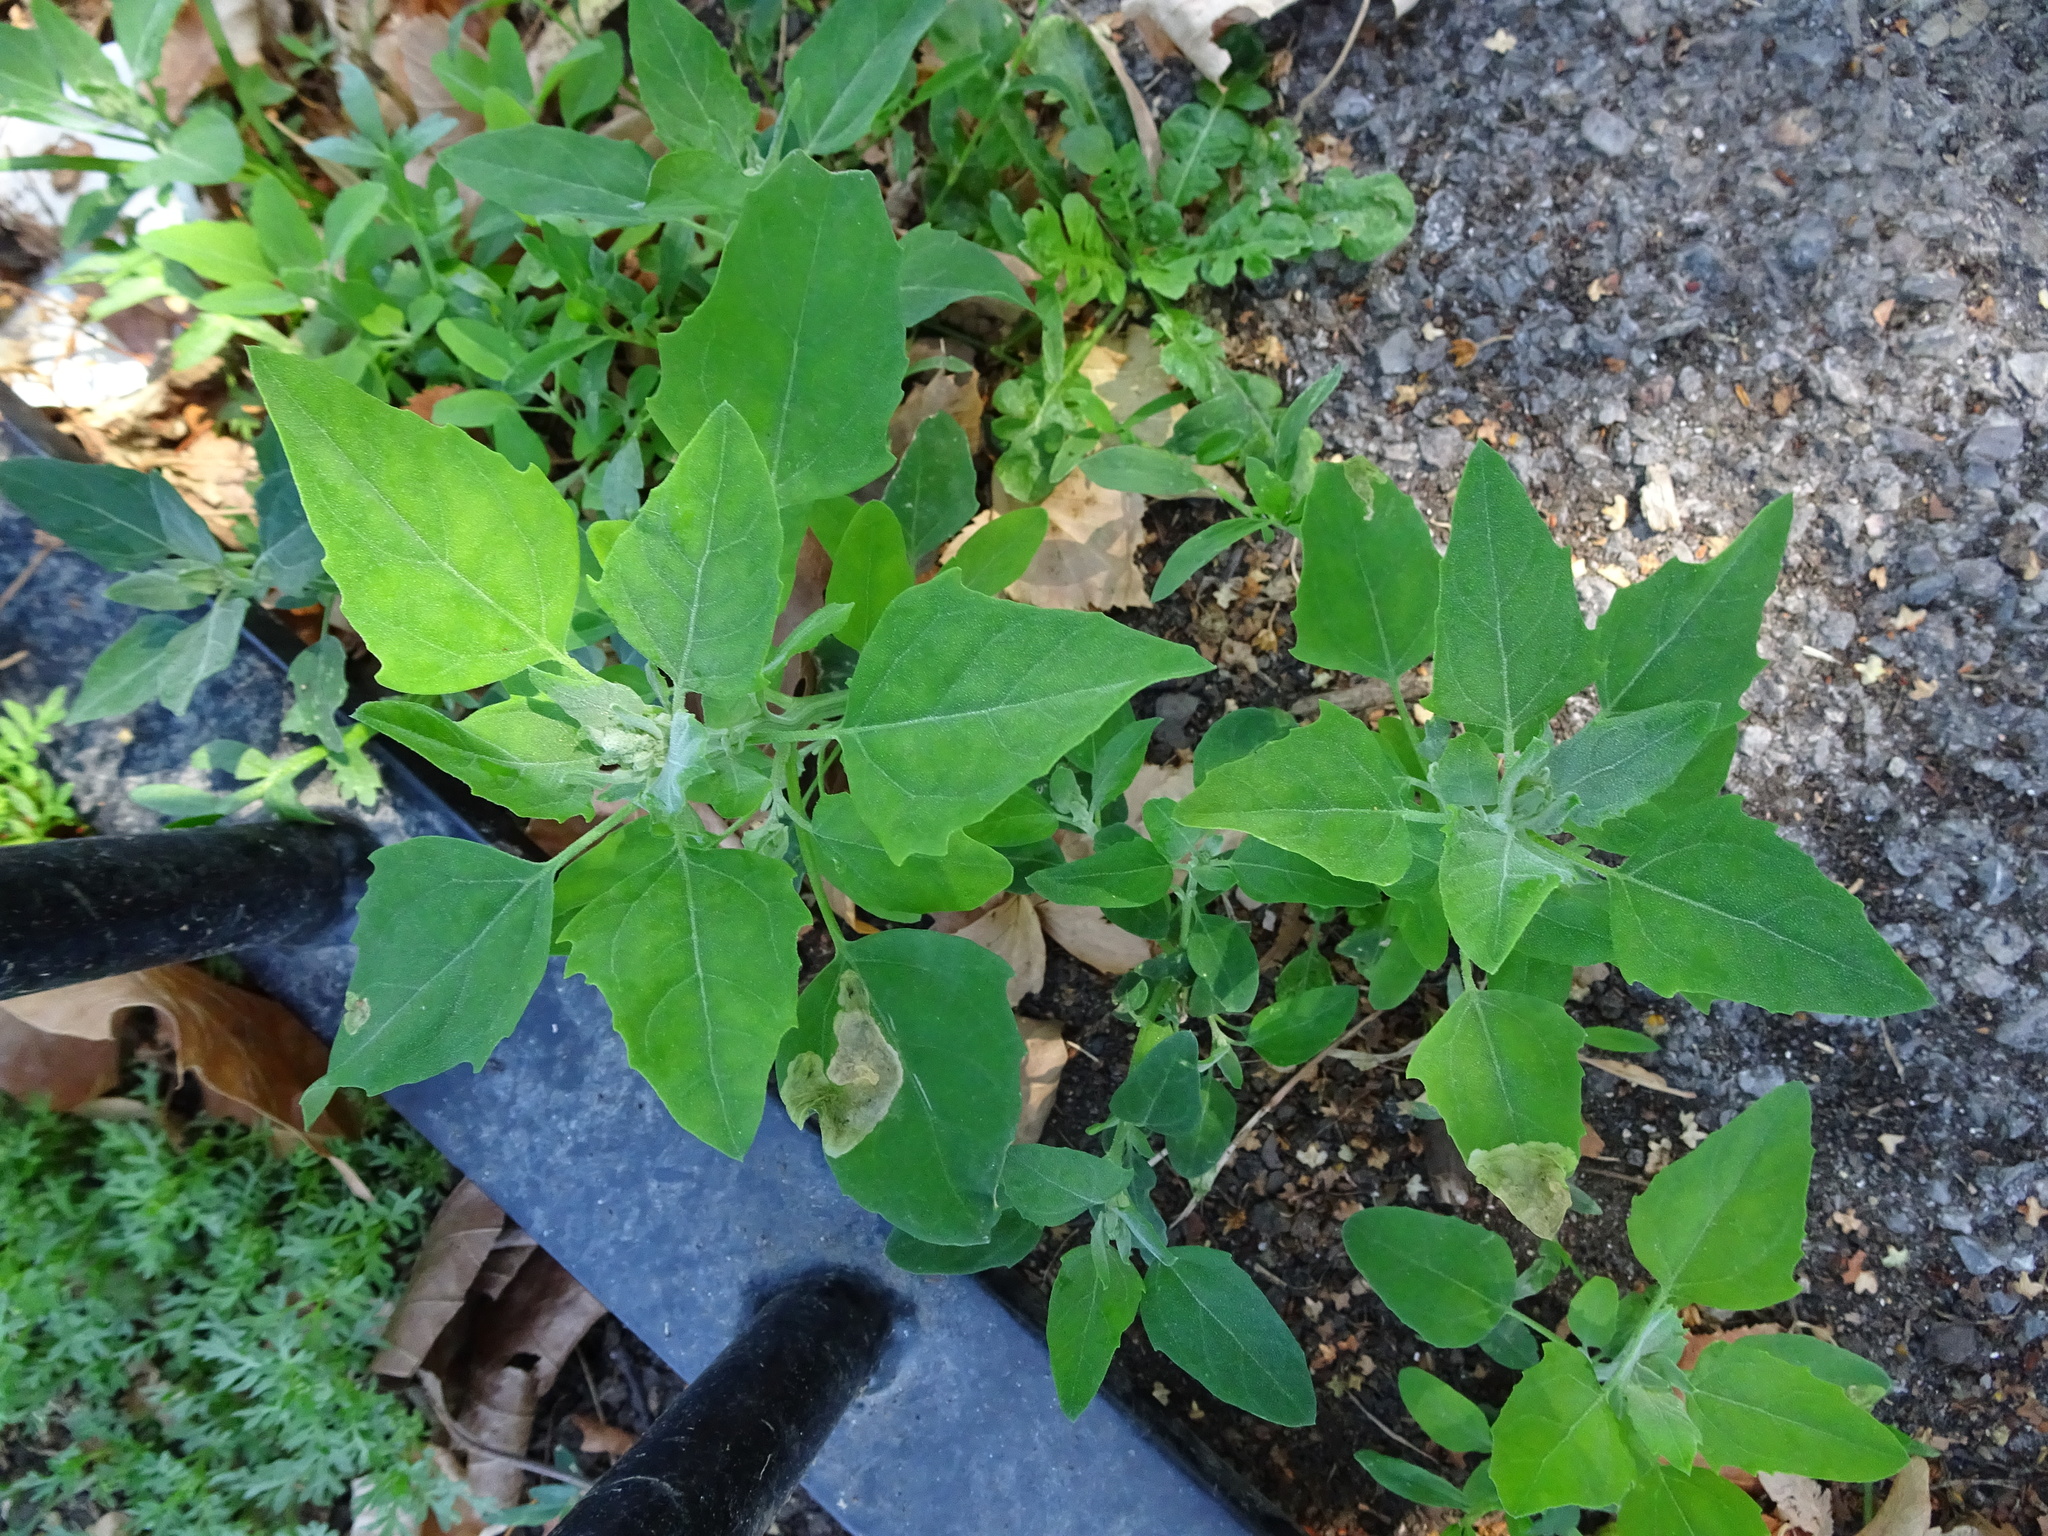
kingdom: Plantae
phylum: Tracheophyta
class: Magnoliopsida
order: Caryophyllales
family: Amaranthaceae
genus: Chenopodium
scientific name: Chenopodium album
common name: Fat-hen
